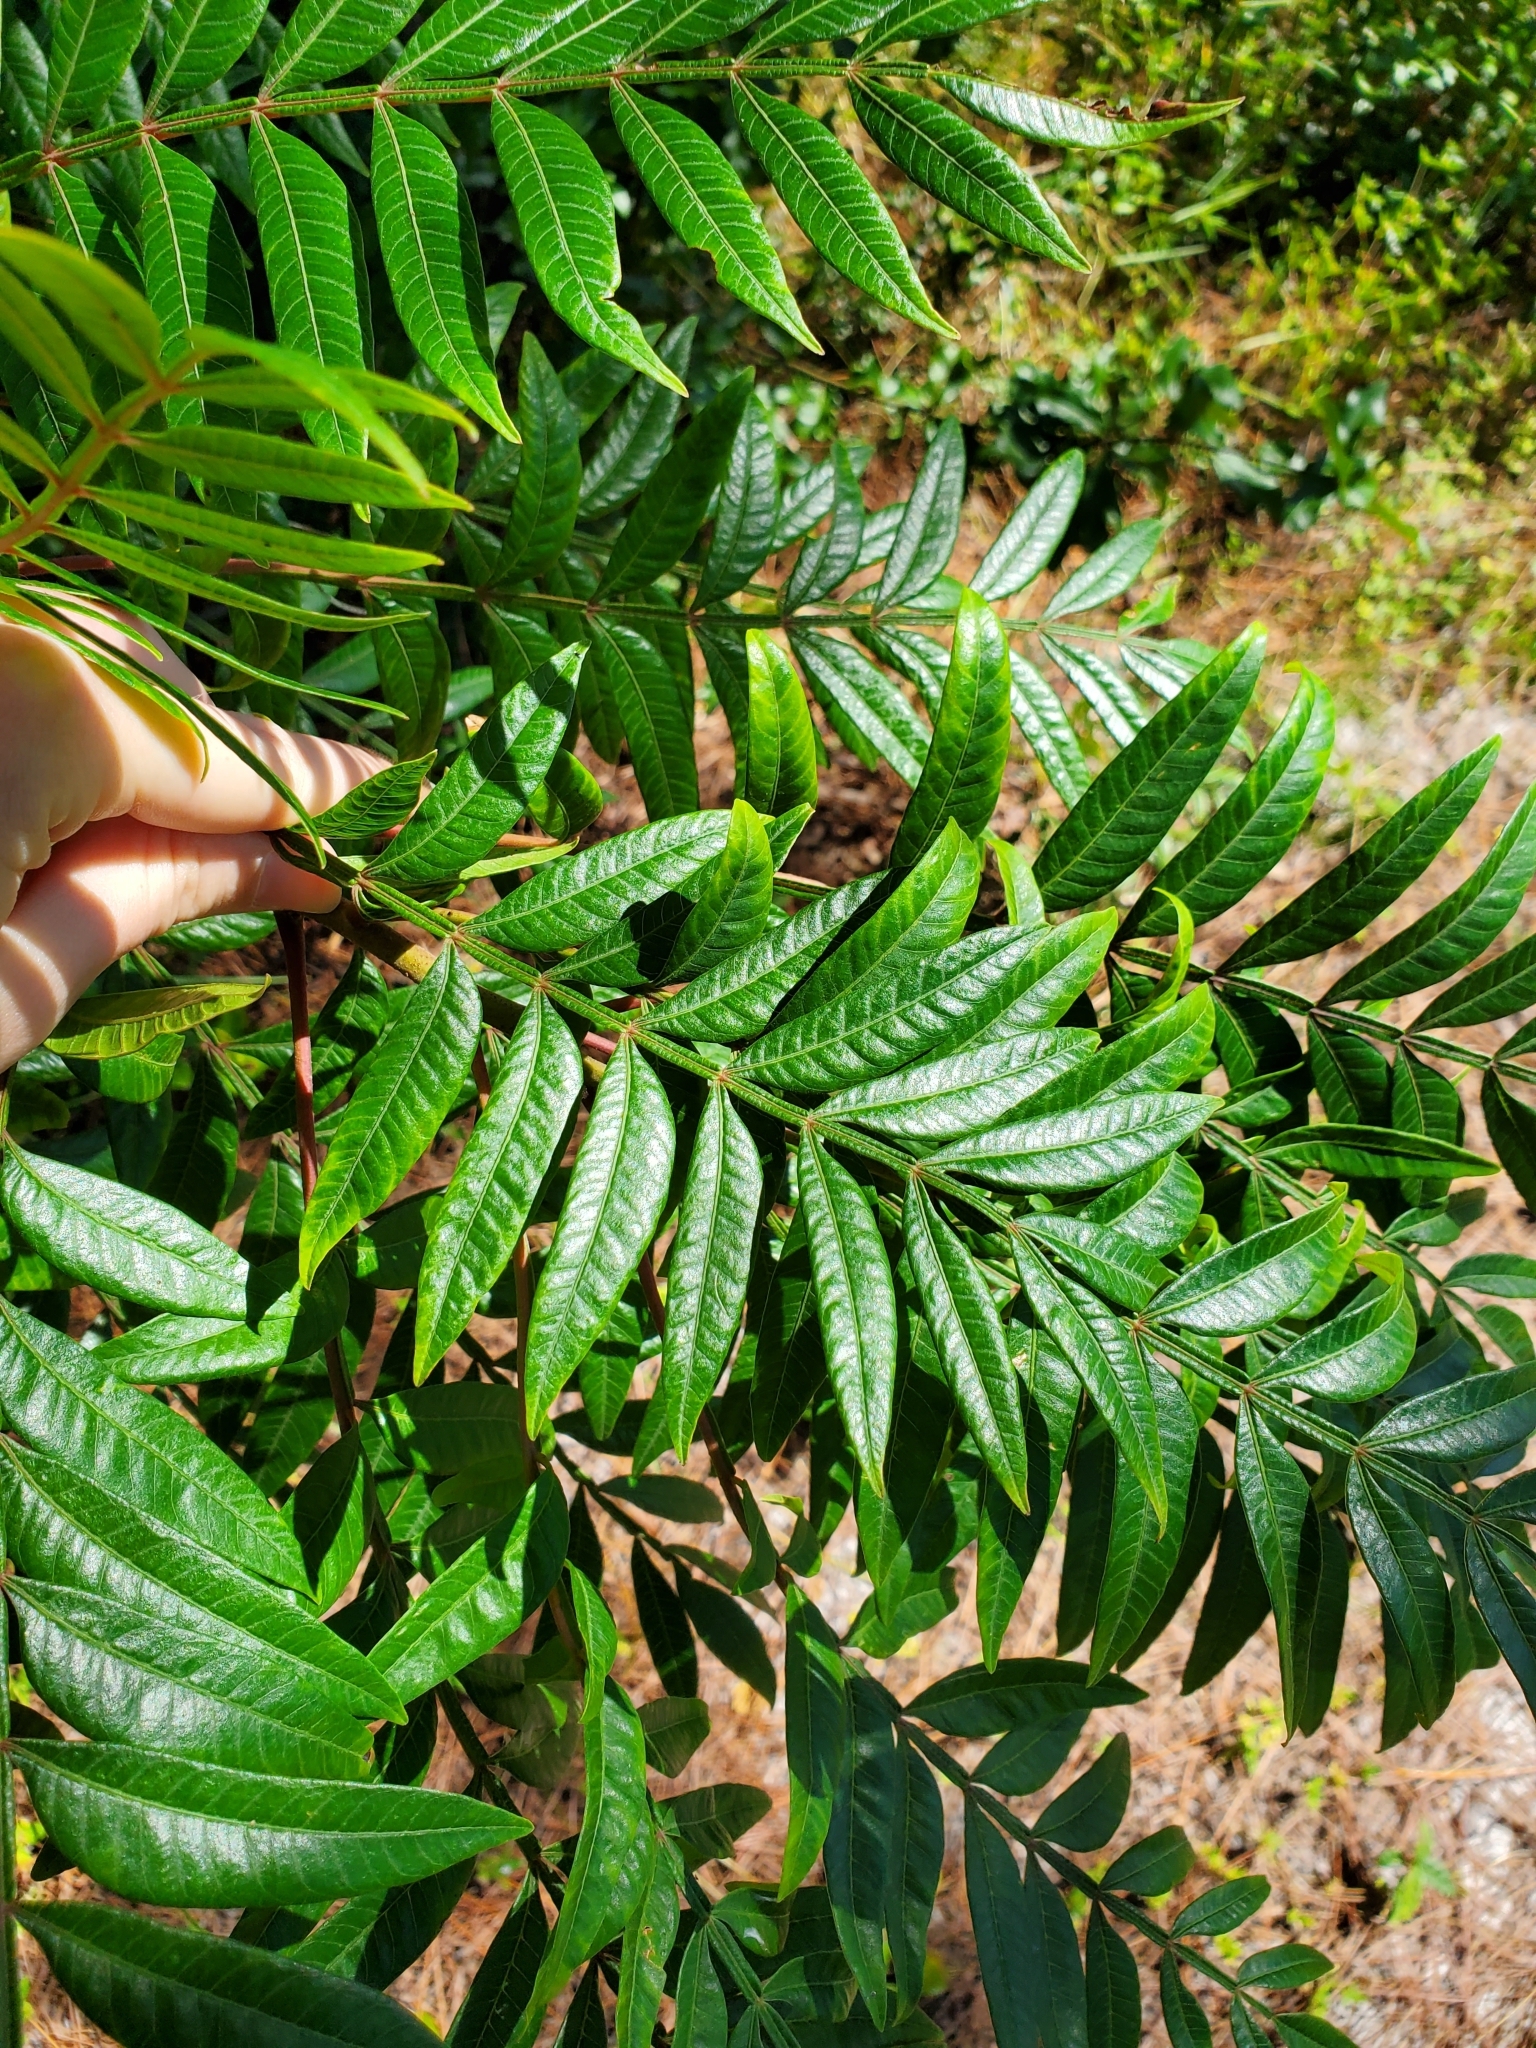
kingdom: Plantae
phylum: Tracheophyta
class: Magnoliopsida
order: Sapindales
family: Anacardiaceae
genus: Rhus
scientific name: Rhus copallina
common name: Shining sumac
